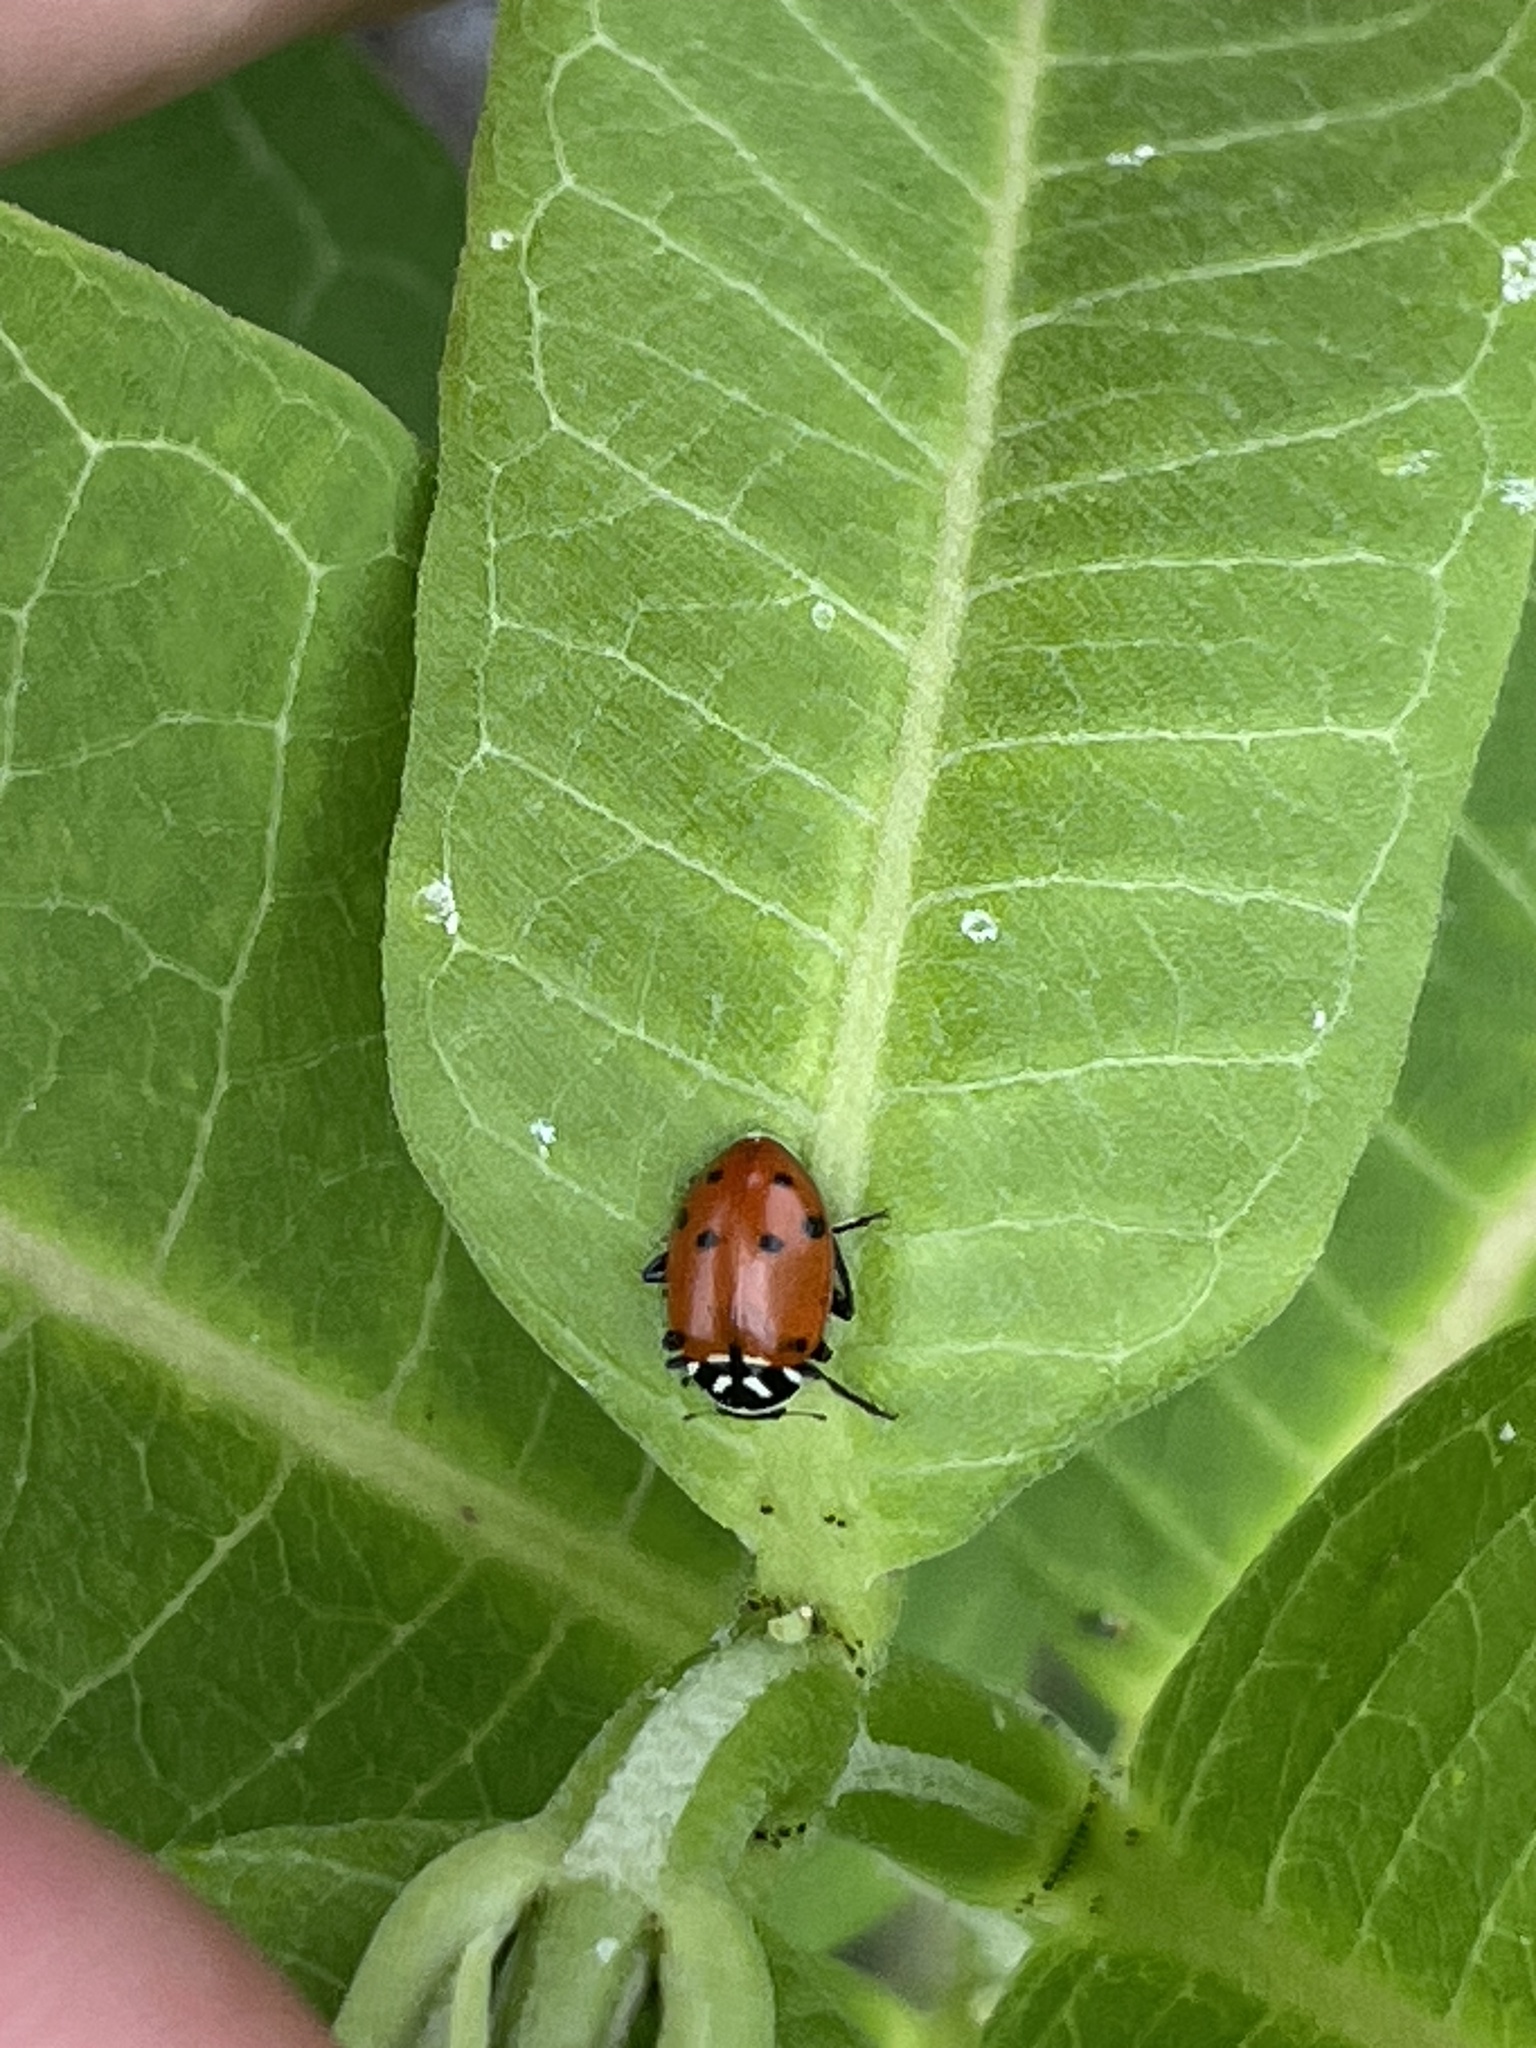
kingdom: Animalia
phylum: Arthropoda
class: Insecta
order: Coleoptera
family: Coccinellidae
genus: Hippodamia
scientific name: Hippodamia convergens
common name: Convergent lady beetle
